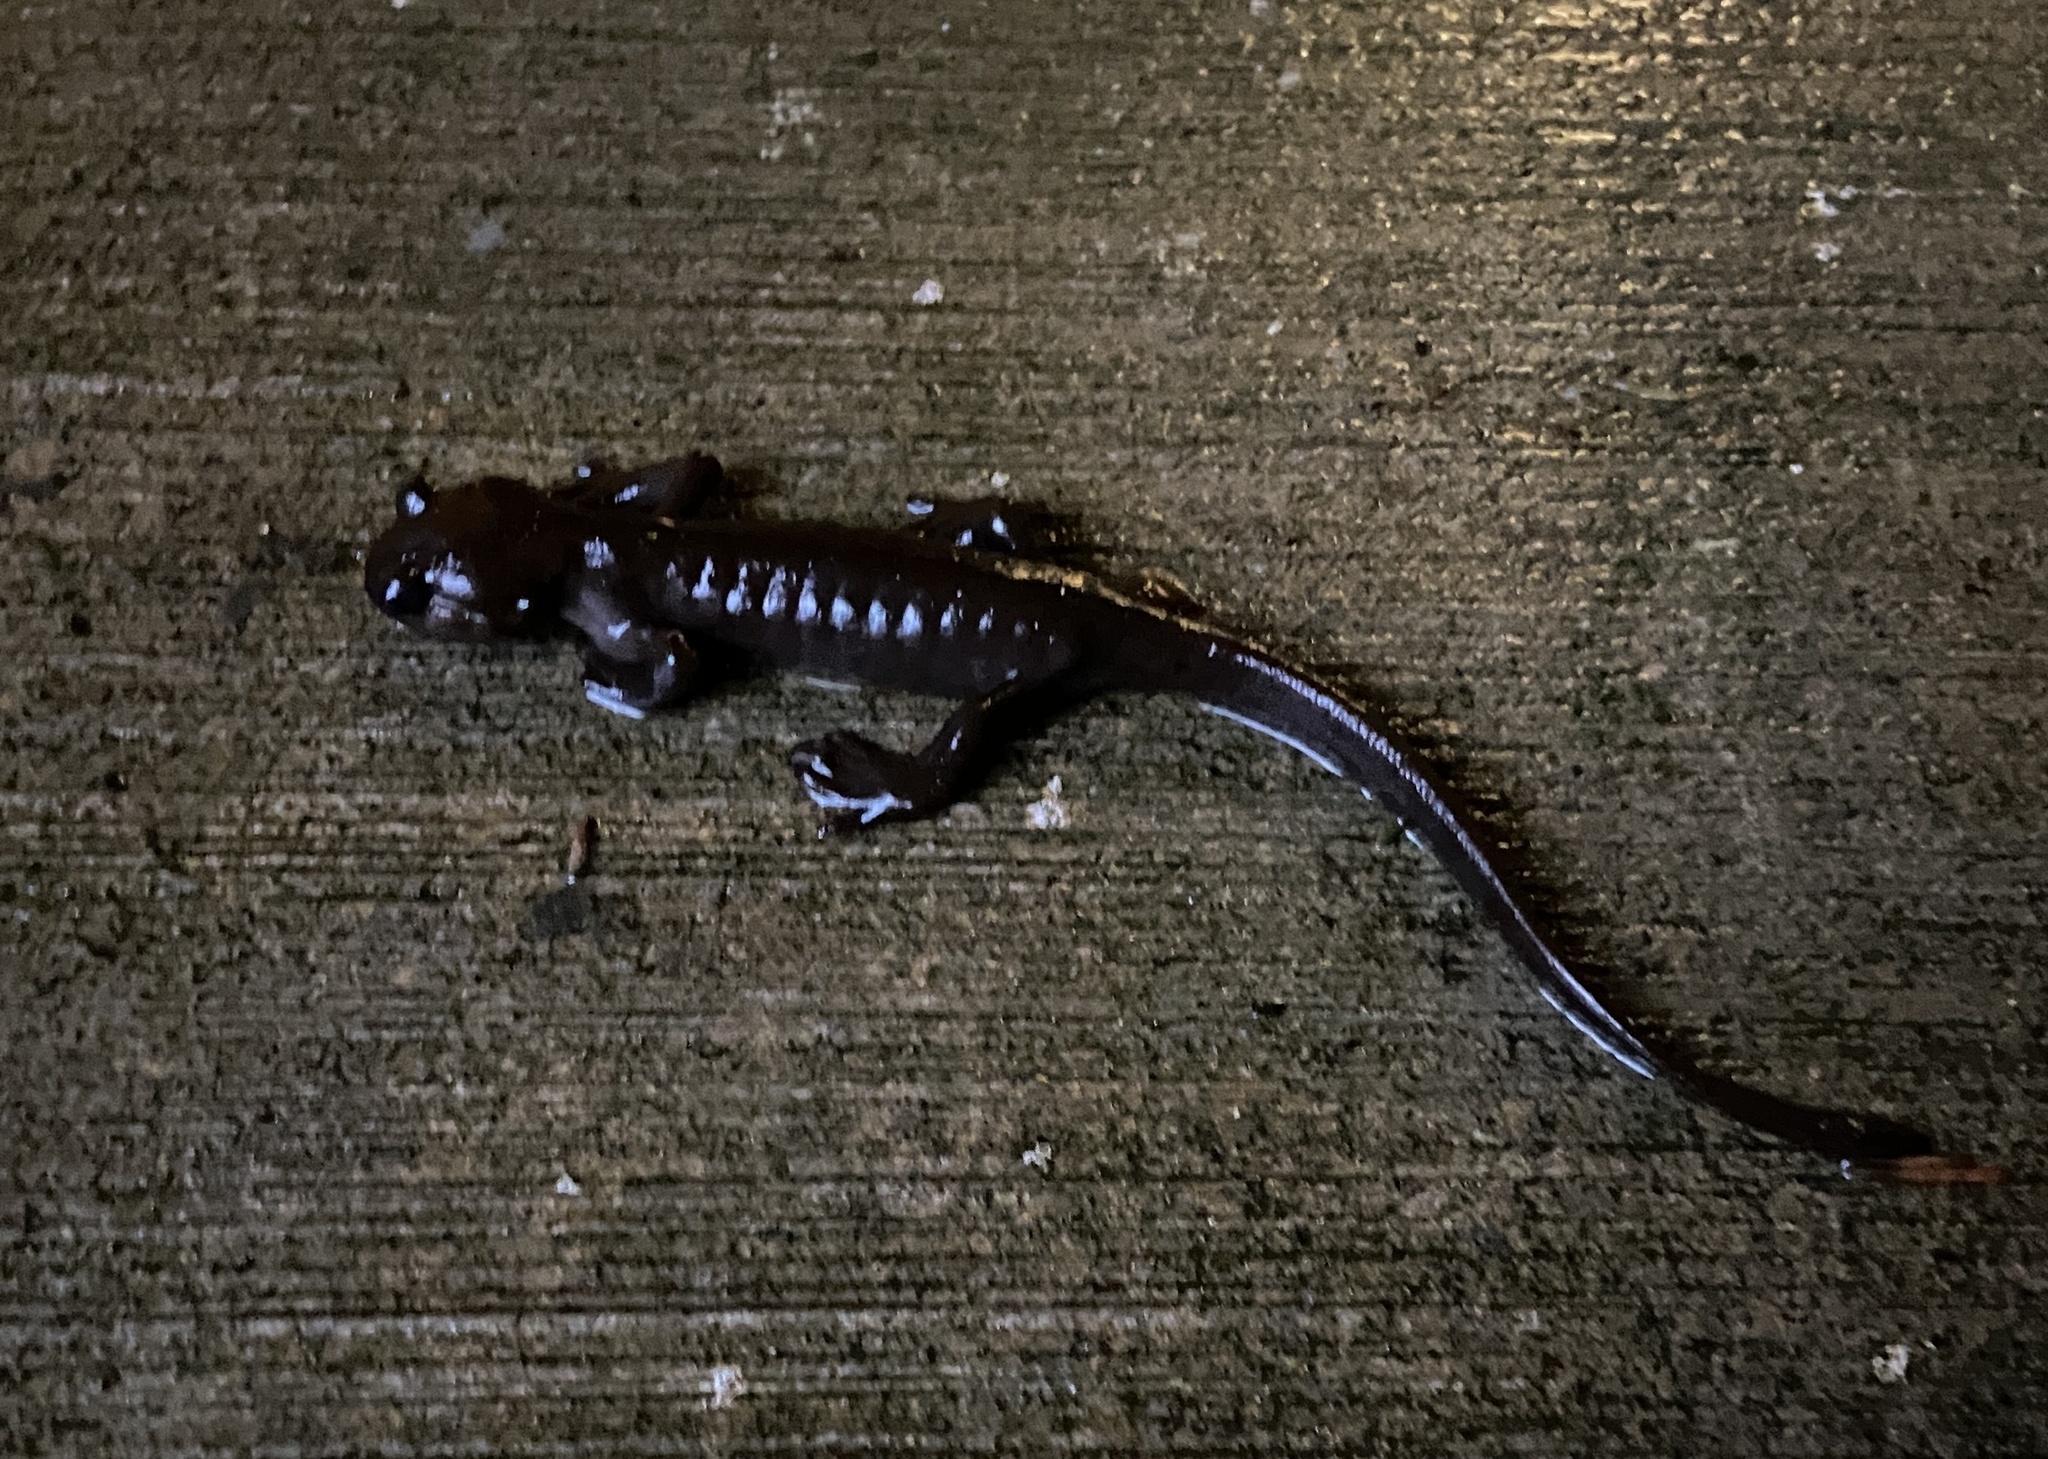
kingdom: Animalia
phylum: Chordata
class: Amphibia
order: Caudata
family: Ambystomatidae
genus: Ambystoma
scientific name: Ambystoma gracile
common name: Northwestern salamander
